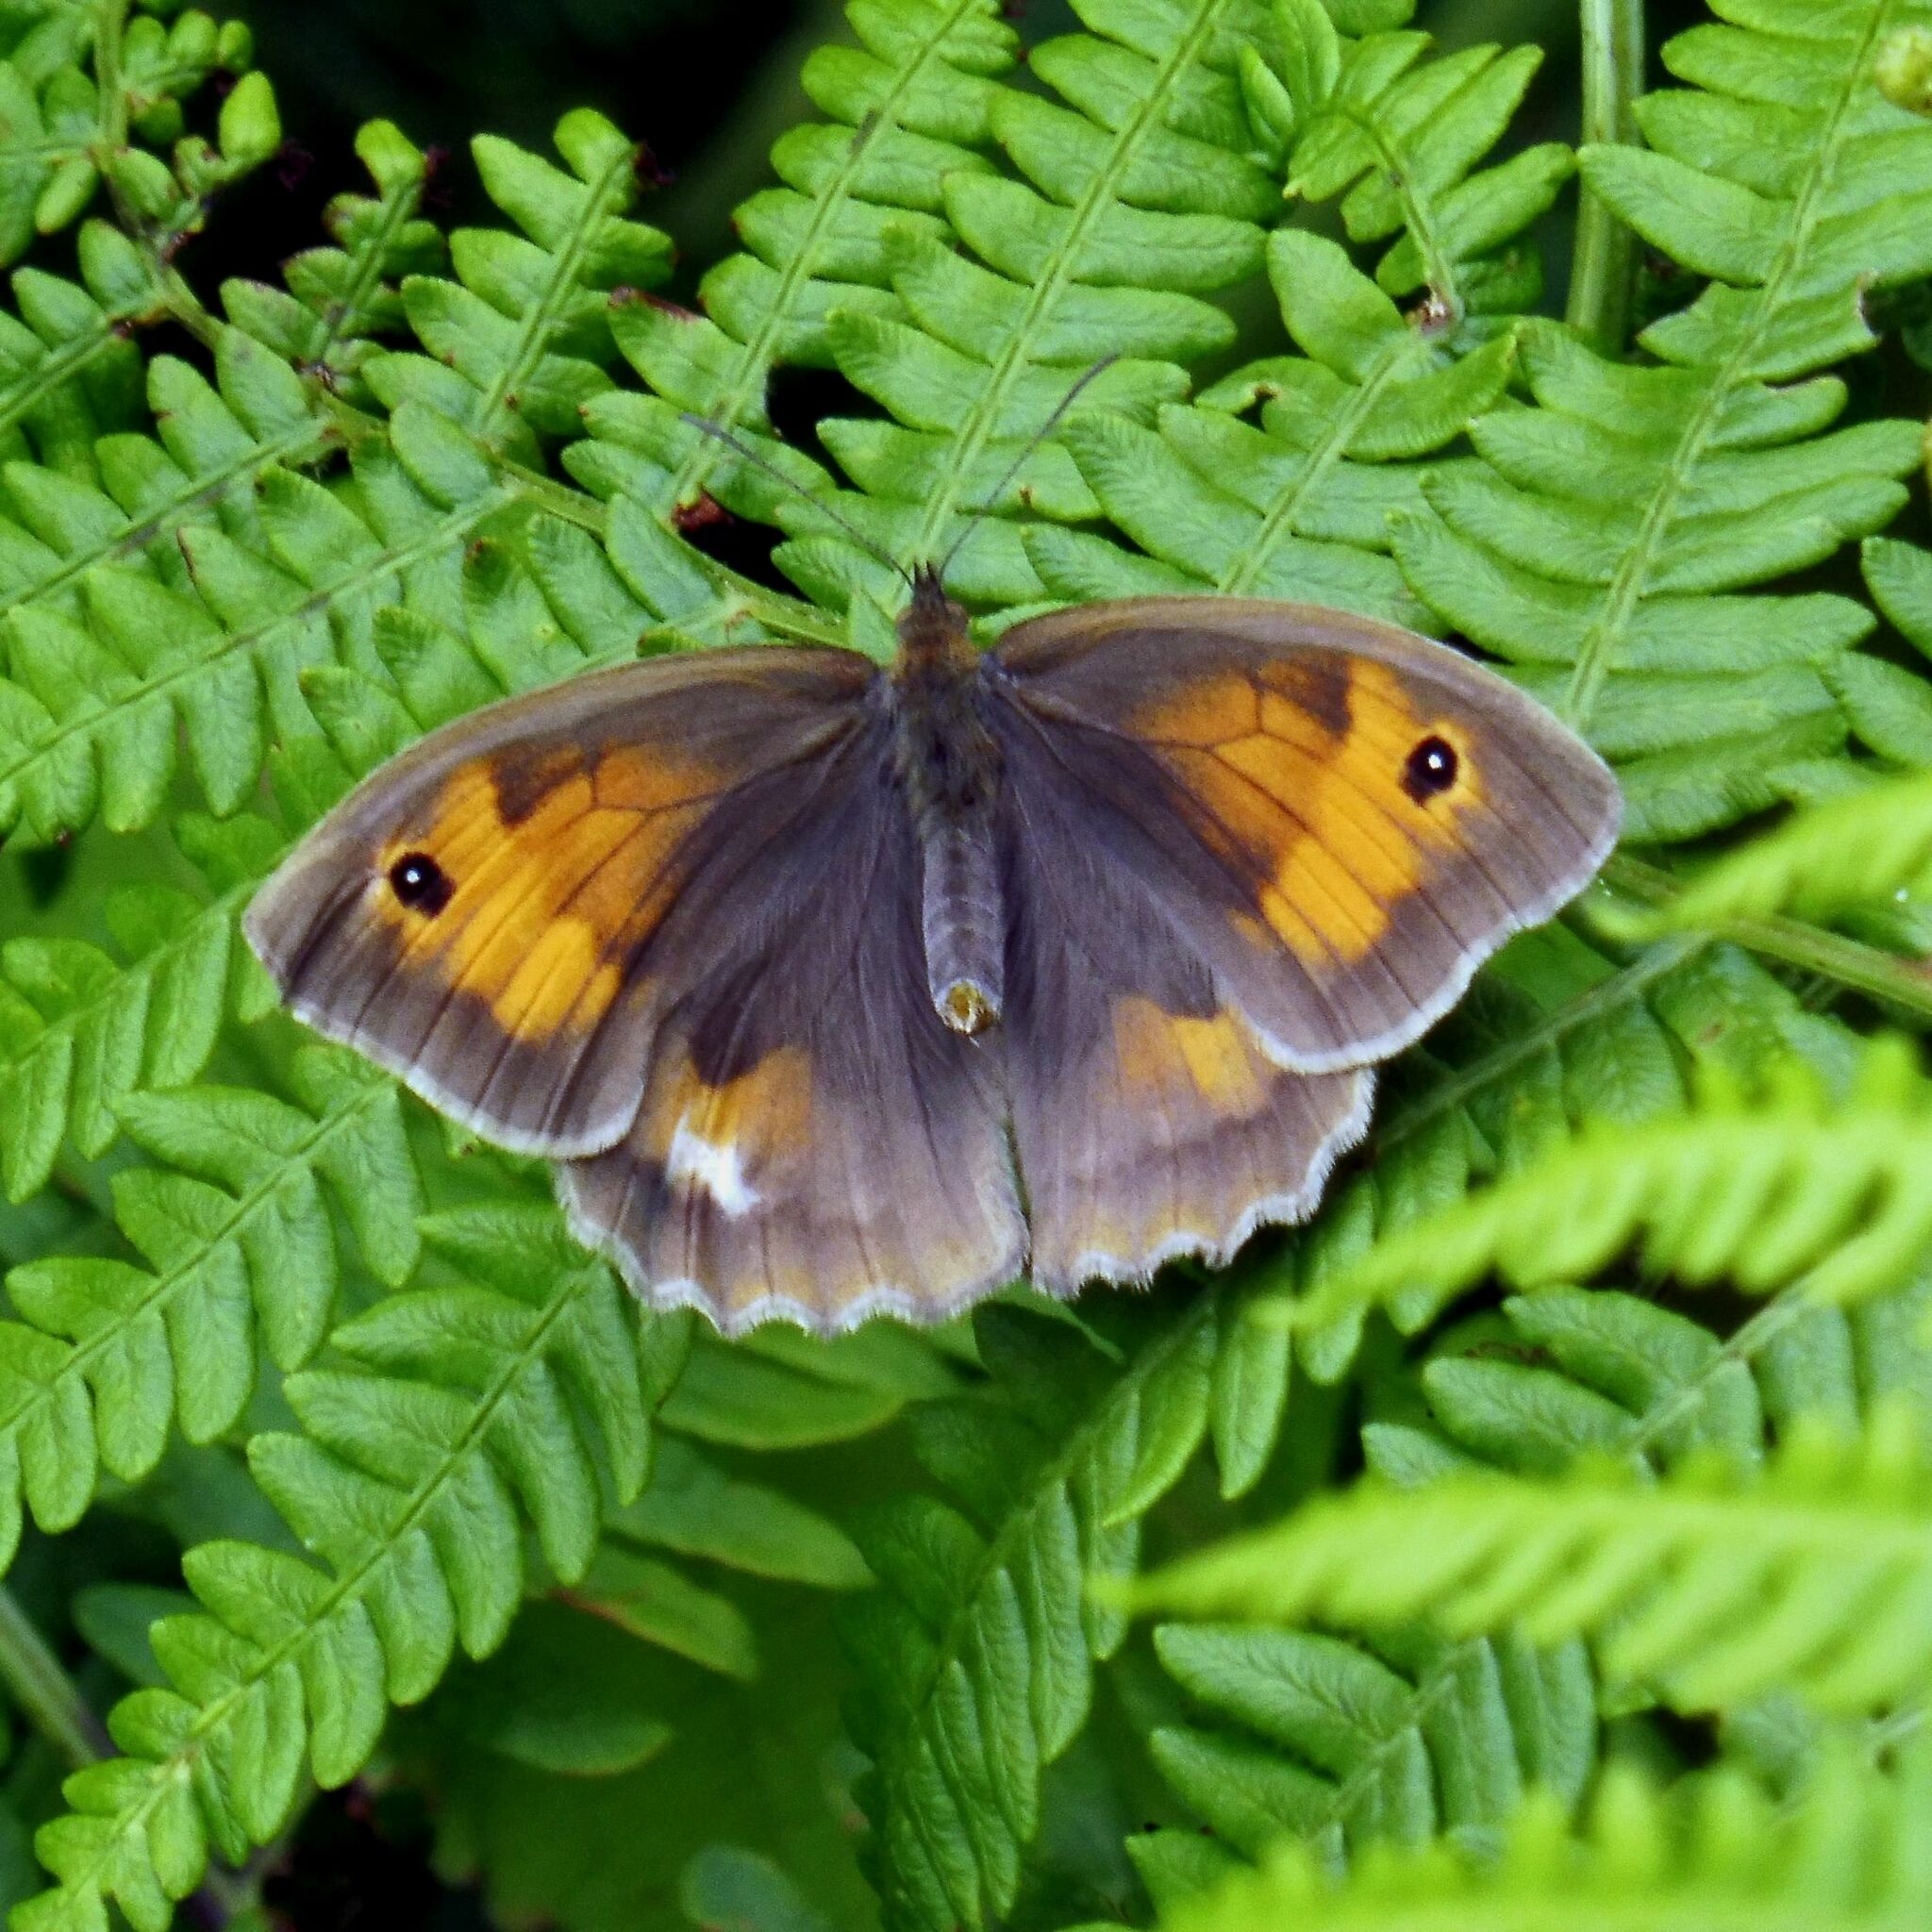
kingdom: Animalia
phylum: Arthropoda
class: Insecta
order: Lepidoptera
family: Nymphalidae
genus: Maniola
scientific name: Maniola jurtina
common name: Meadow brown
